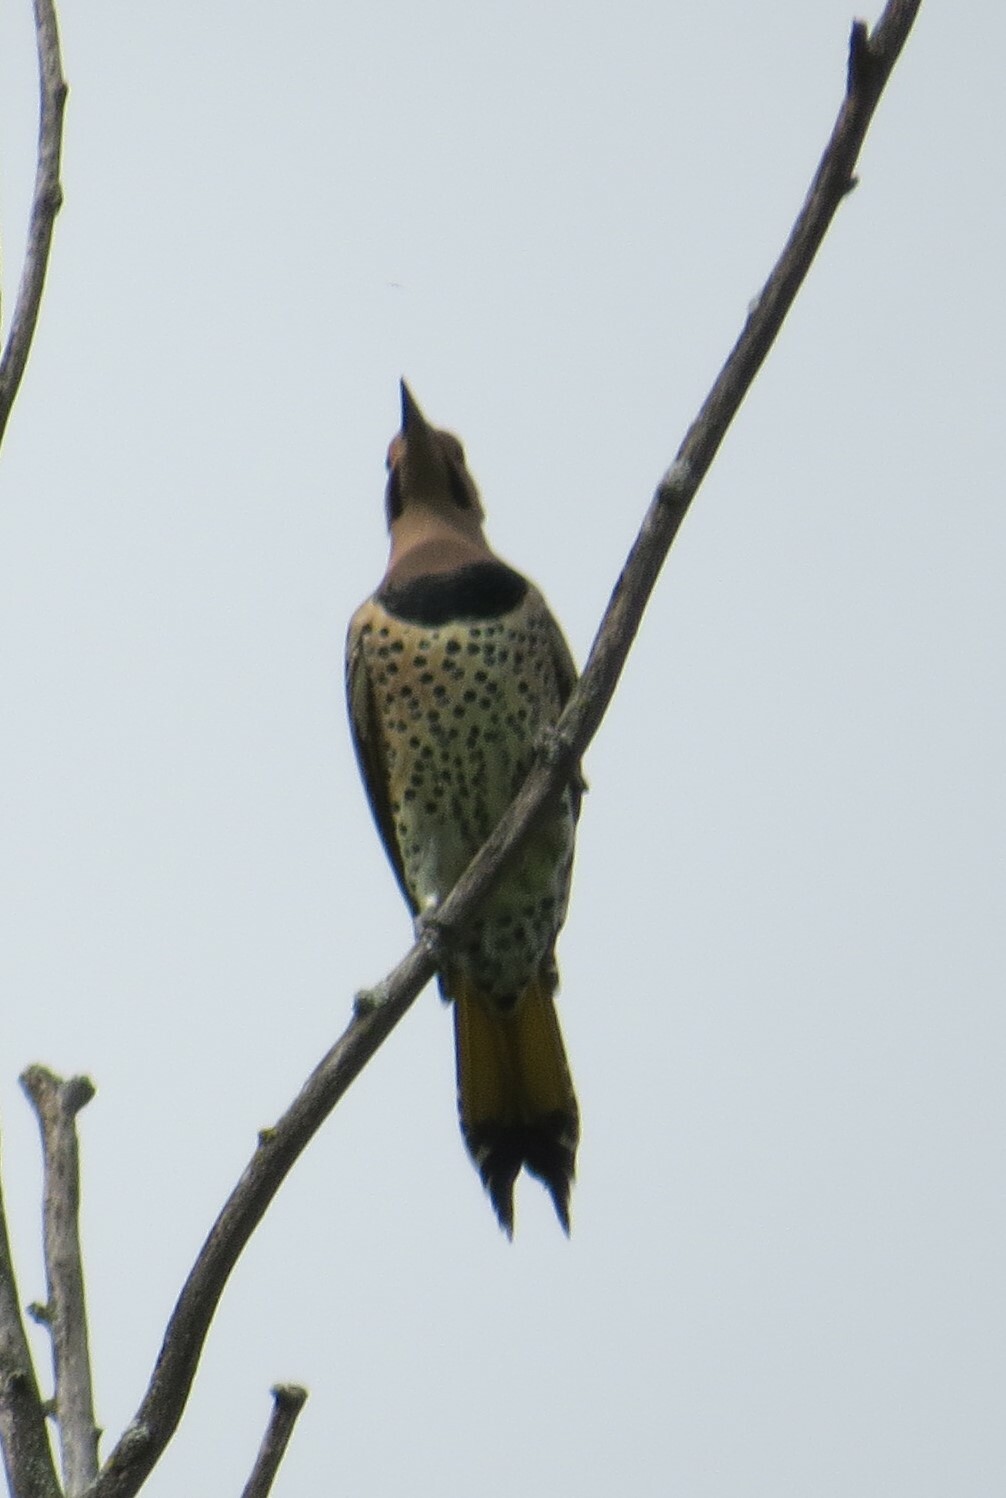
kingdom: Animalia
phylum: Chordata
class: Aves
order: Piciformes
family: Picidae
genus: Colaptes
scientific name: Colaptes auratus
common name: Northern flicker
